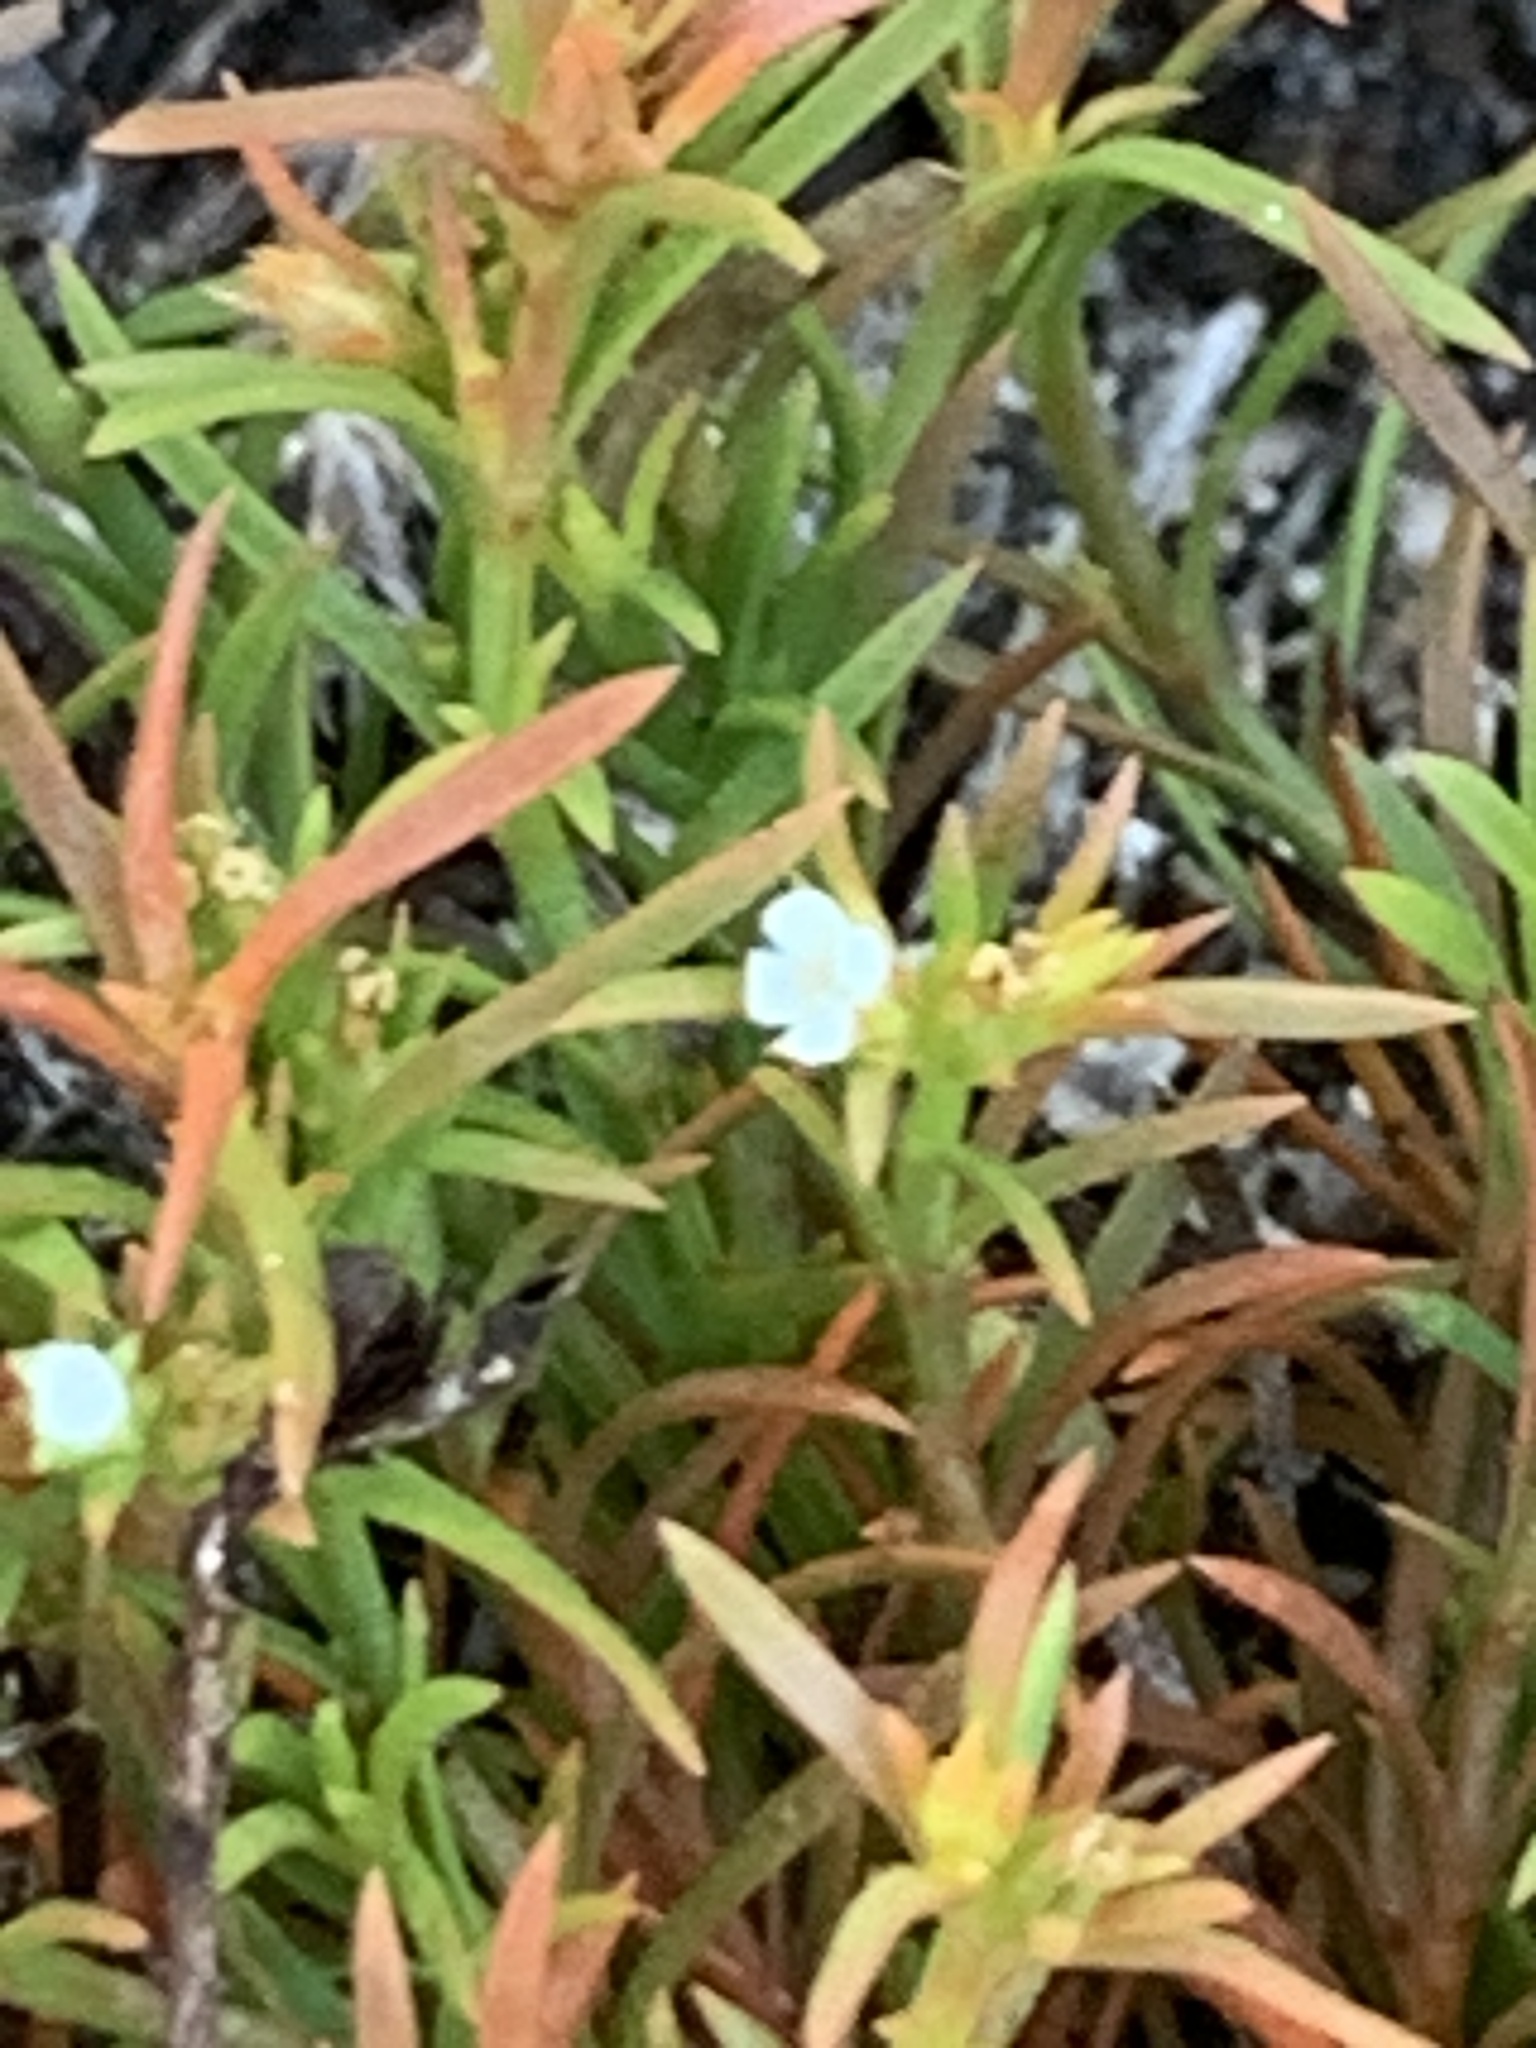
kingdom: Plantae
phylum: Tracheophyta
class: Magnoliopsida
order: Lamiales
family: Tetrachondraceae
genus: Polypremum
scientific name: Polypremum procumbens
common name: Juniper-leaf
